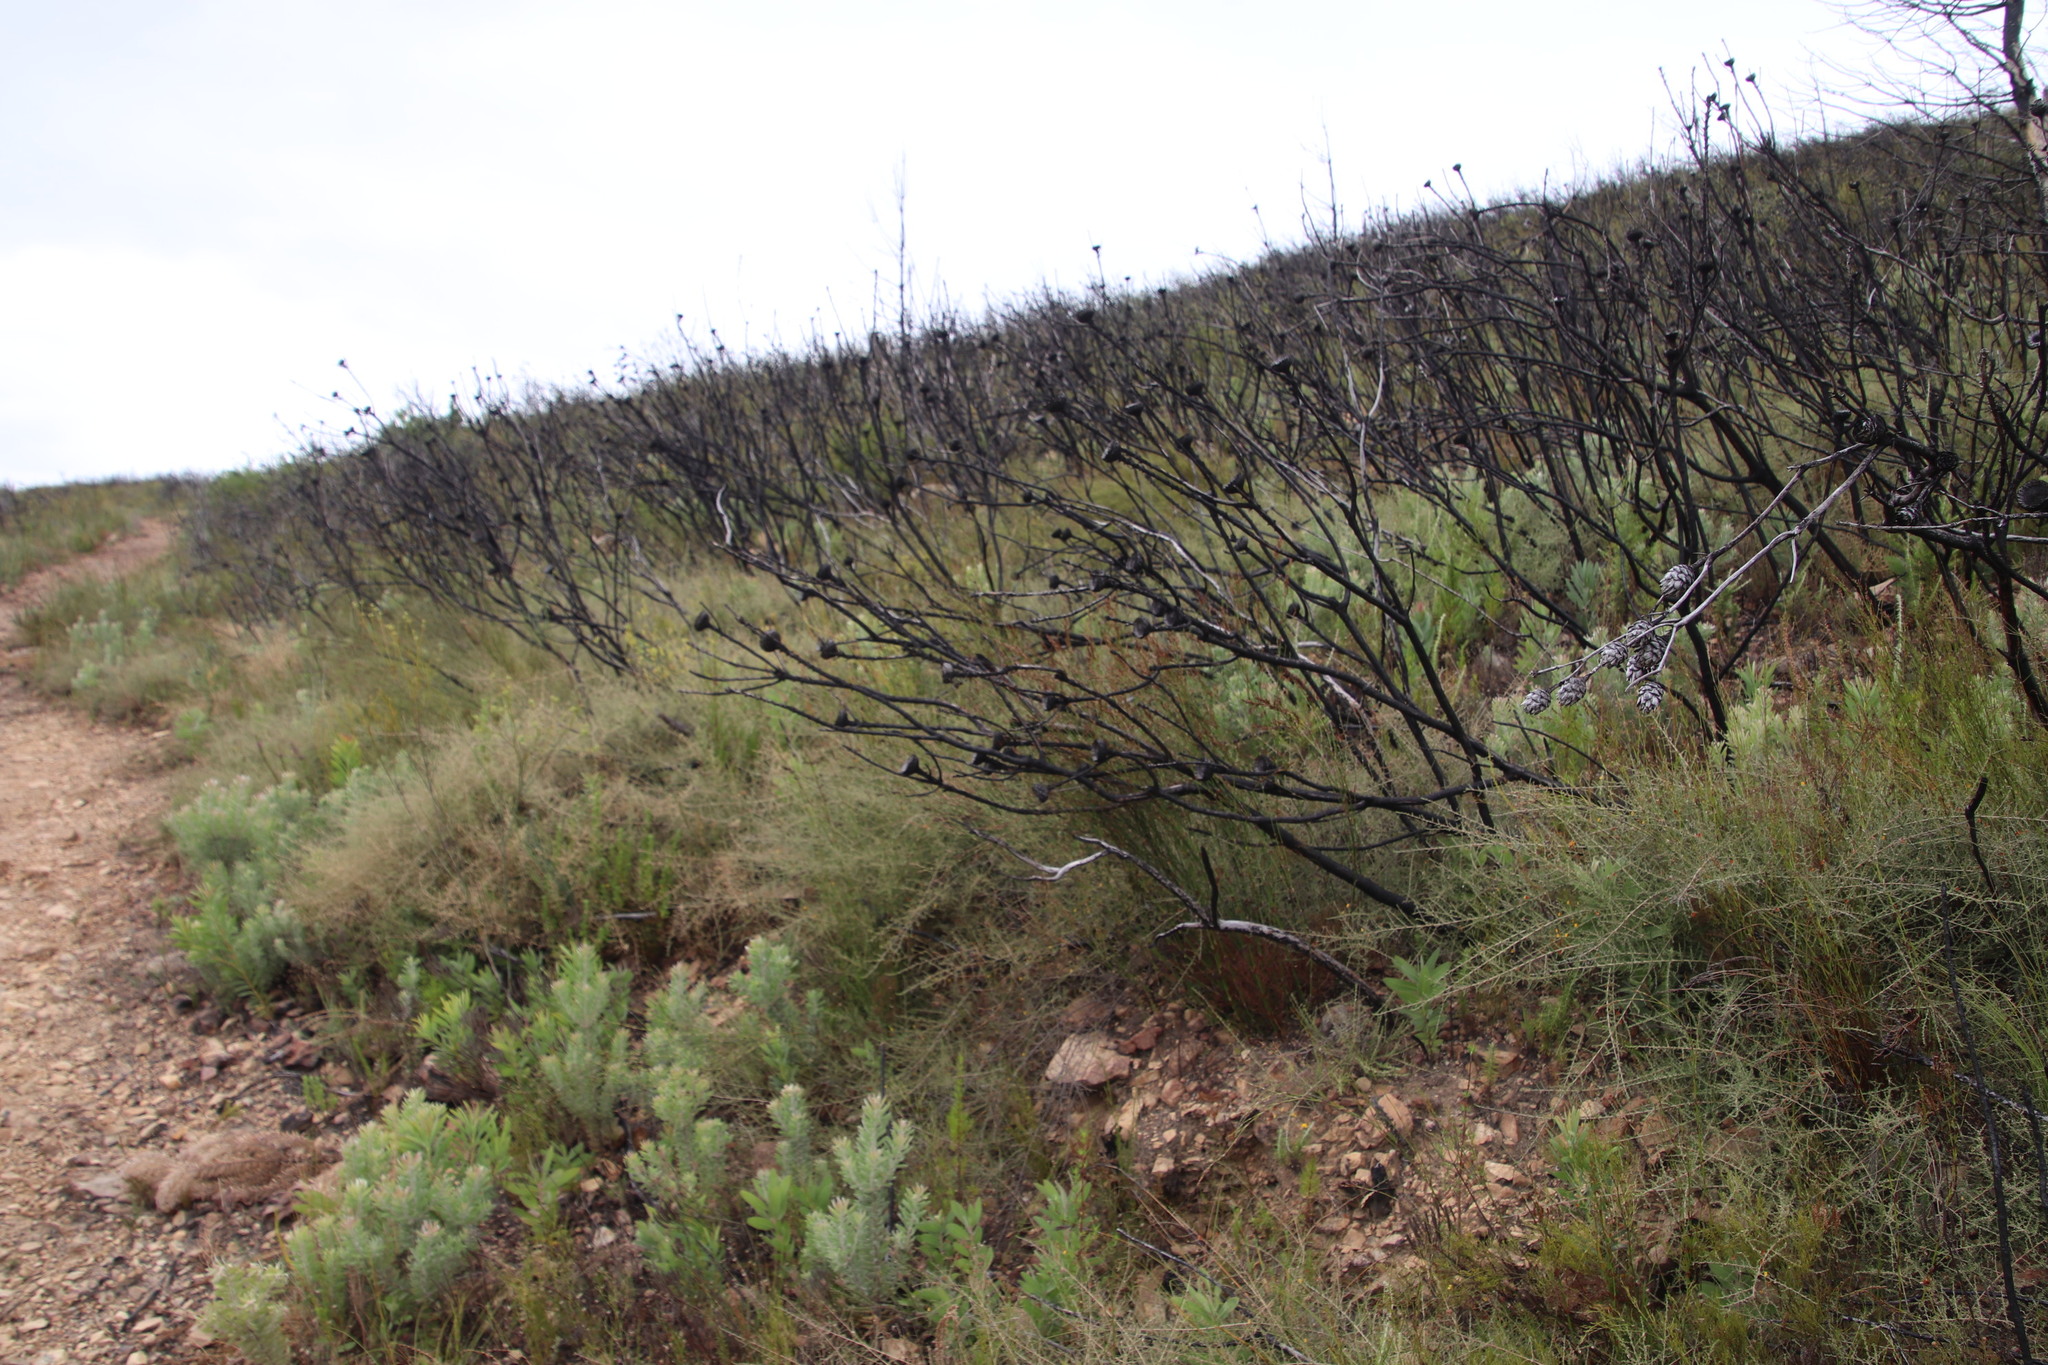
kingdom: Plantae
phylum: Tracheophyta
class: Magnoliopsida
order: Proteales
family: Proteaceae
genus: Protea
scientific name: Protea laurifolia
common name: Grey-leaf sugarbsh
